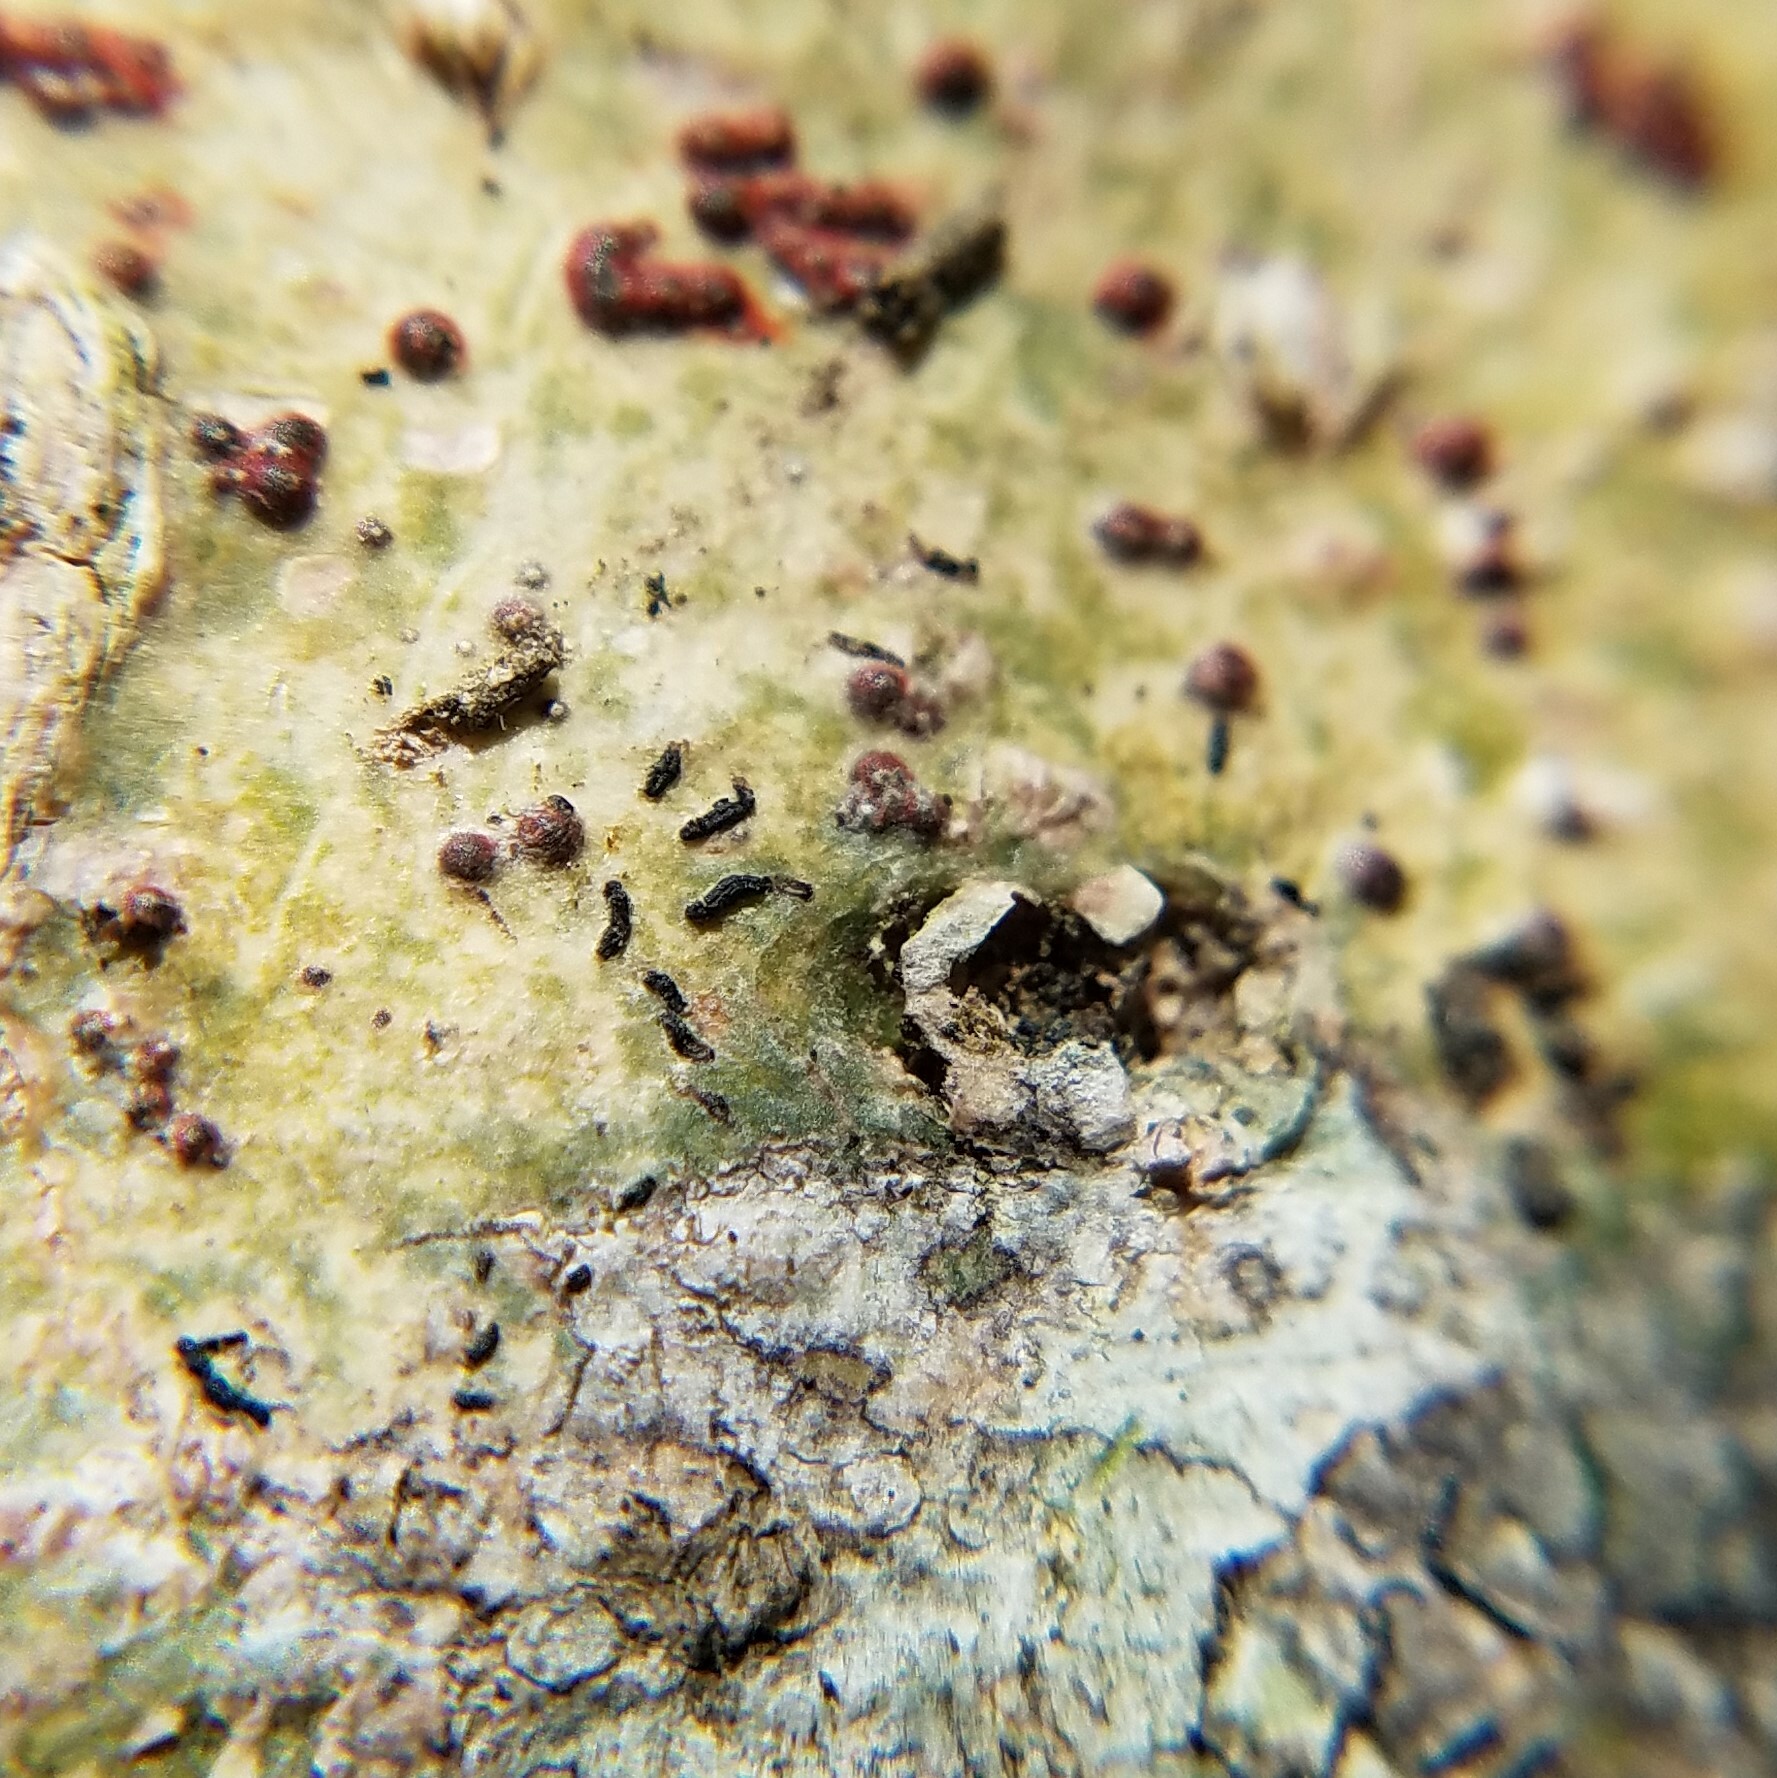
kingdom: Fungi
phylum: Ascomycota
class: Dothideomycetes
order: Eremithallales
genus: Melanographa
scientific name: Melanographa
